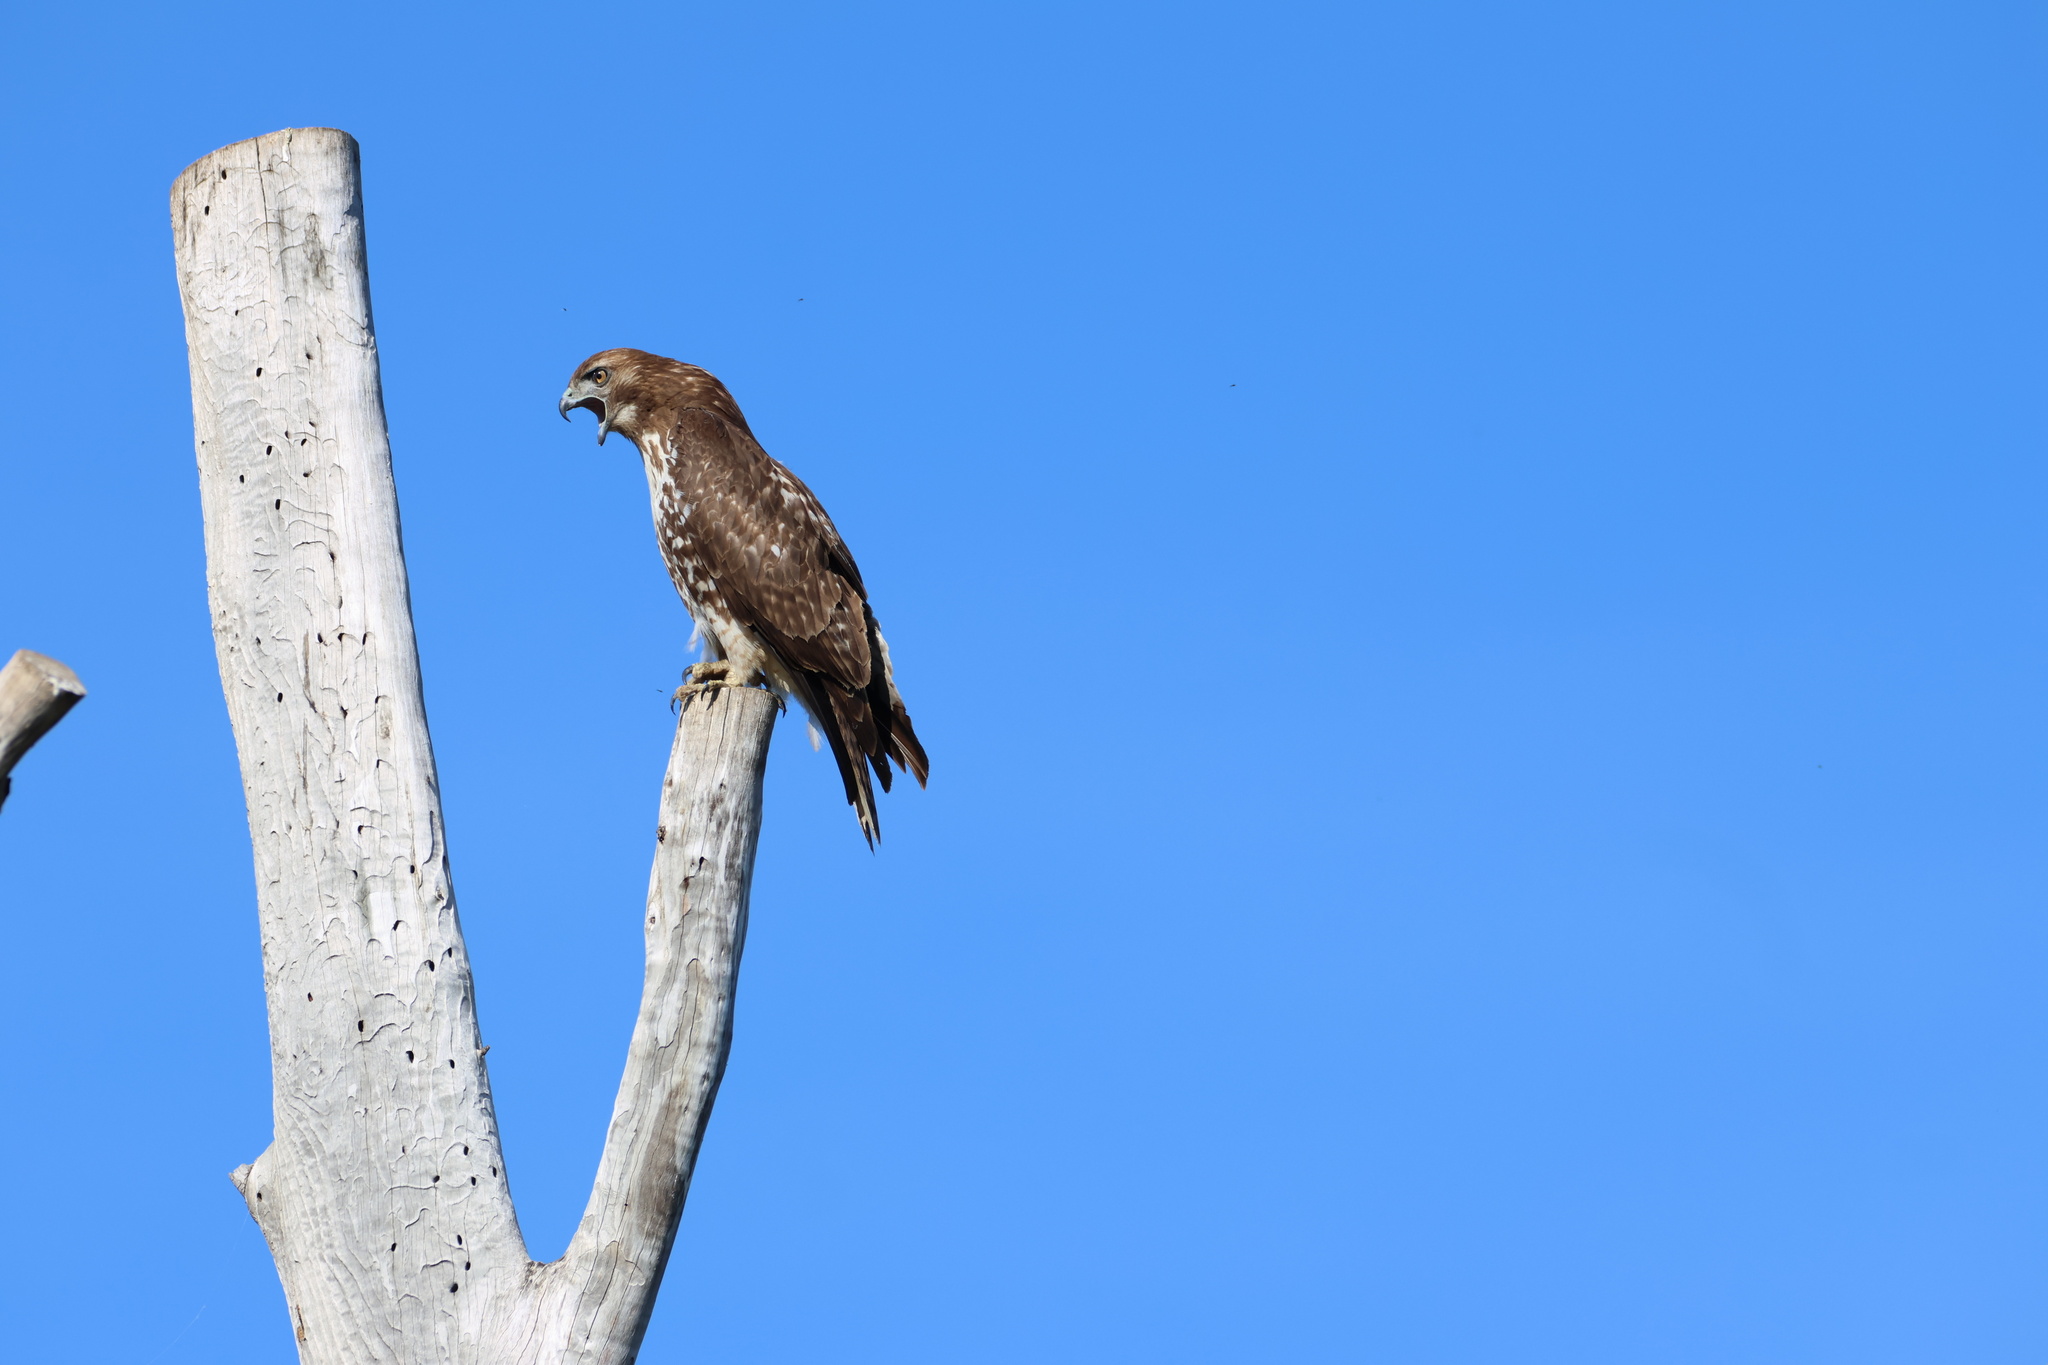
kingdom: Animalia
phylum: Chordata
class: Aves
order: Accipitriformes
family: Accipitridae
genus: Buteo
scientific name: Buteo jamaicensis
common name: Red-tailed hawk
